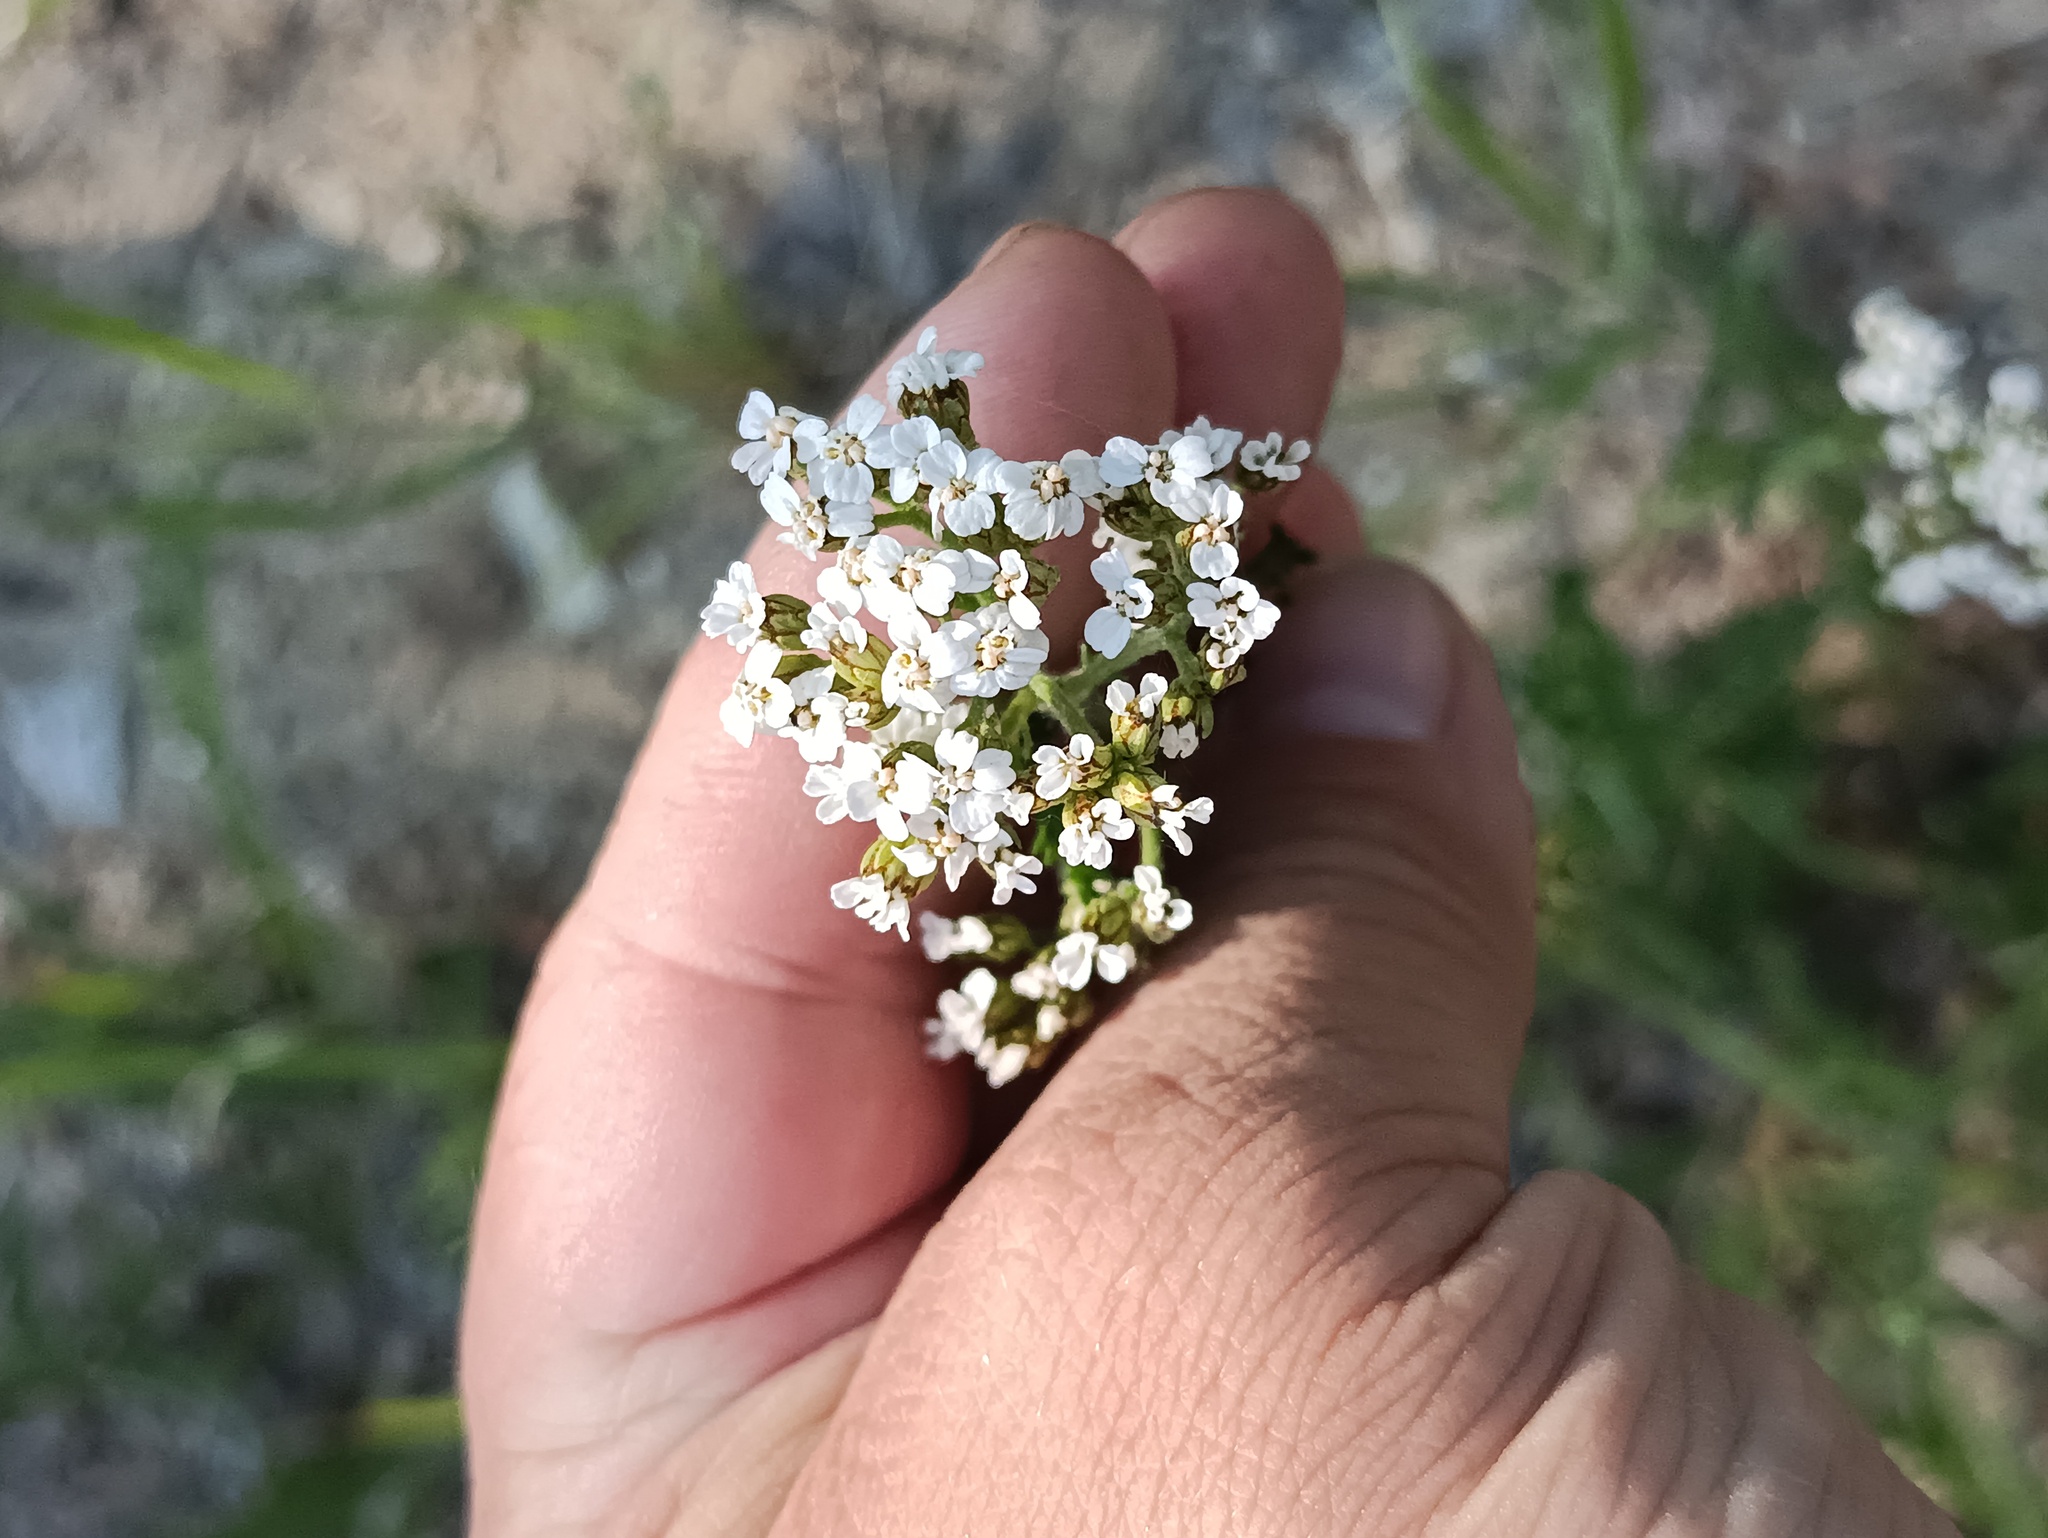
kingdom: Plantae
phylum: Tracheophyta
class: Magnoliopsida
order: Asterales
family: Asteraceae
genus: Achillea
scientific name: Achillea millefolium
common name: Yarrow
